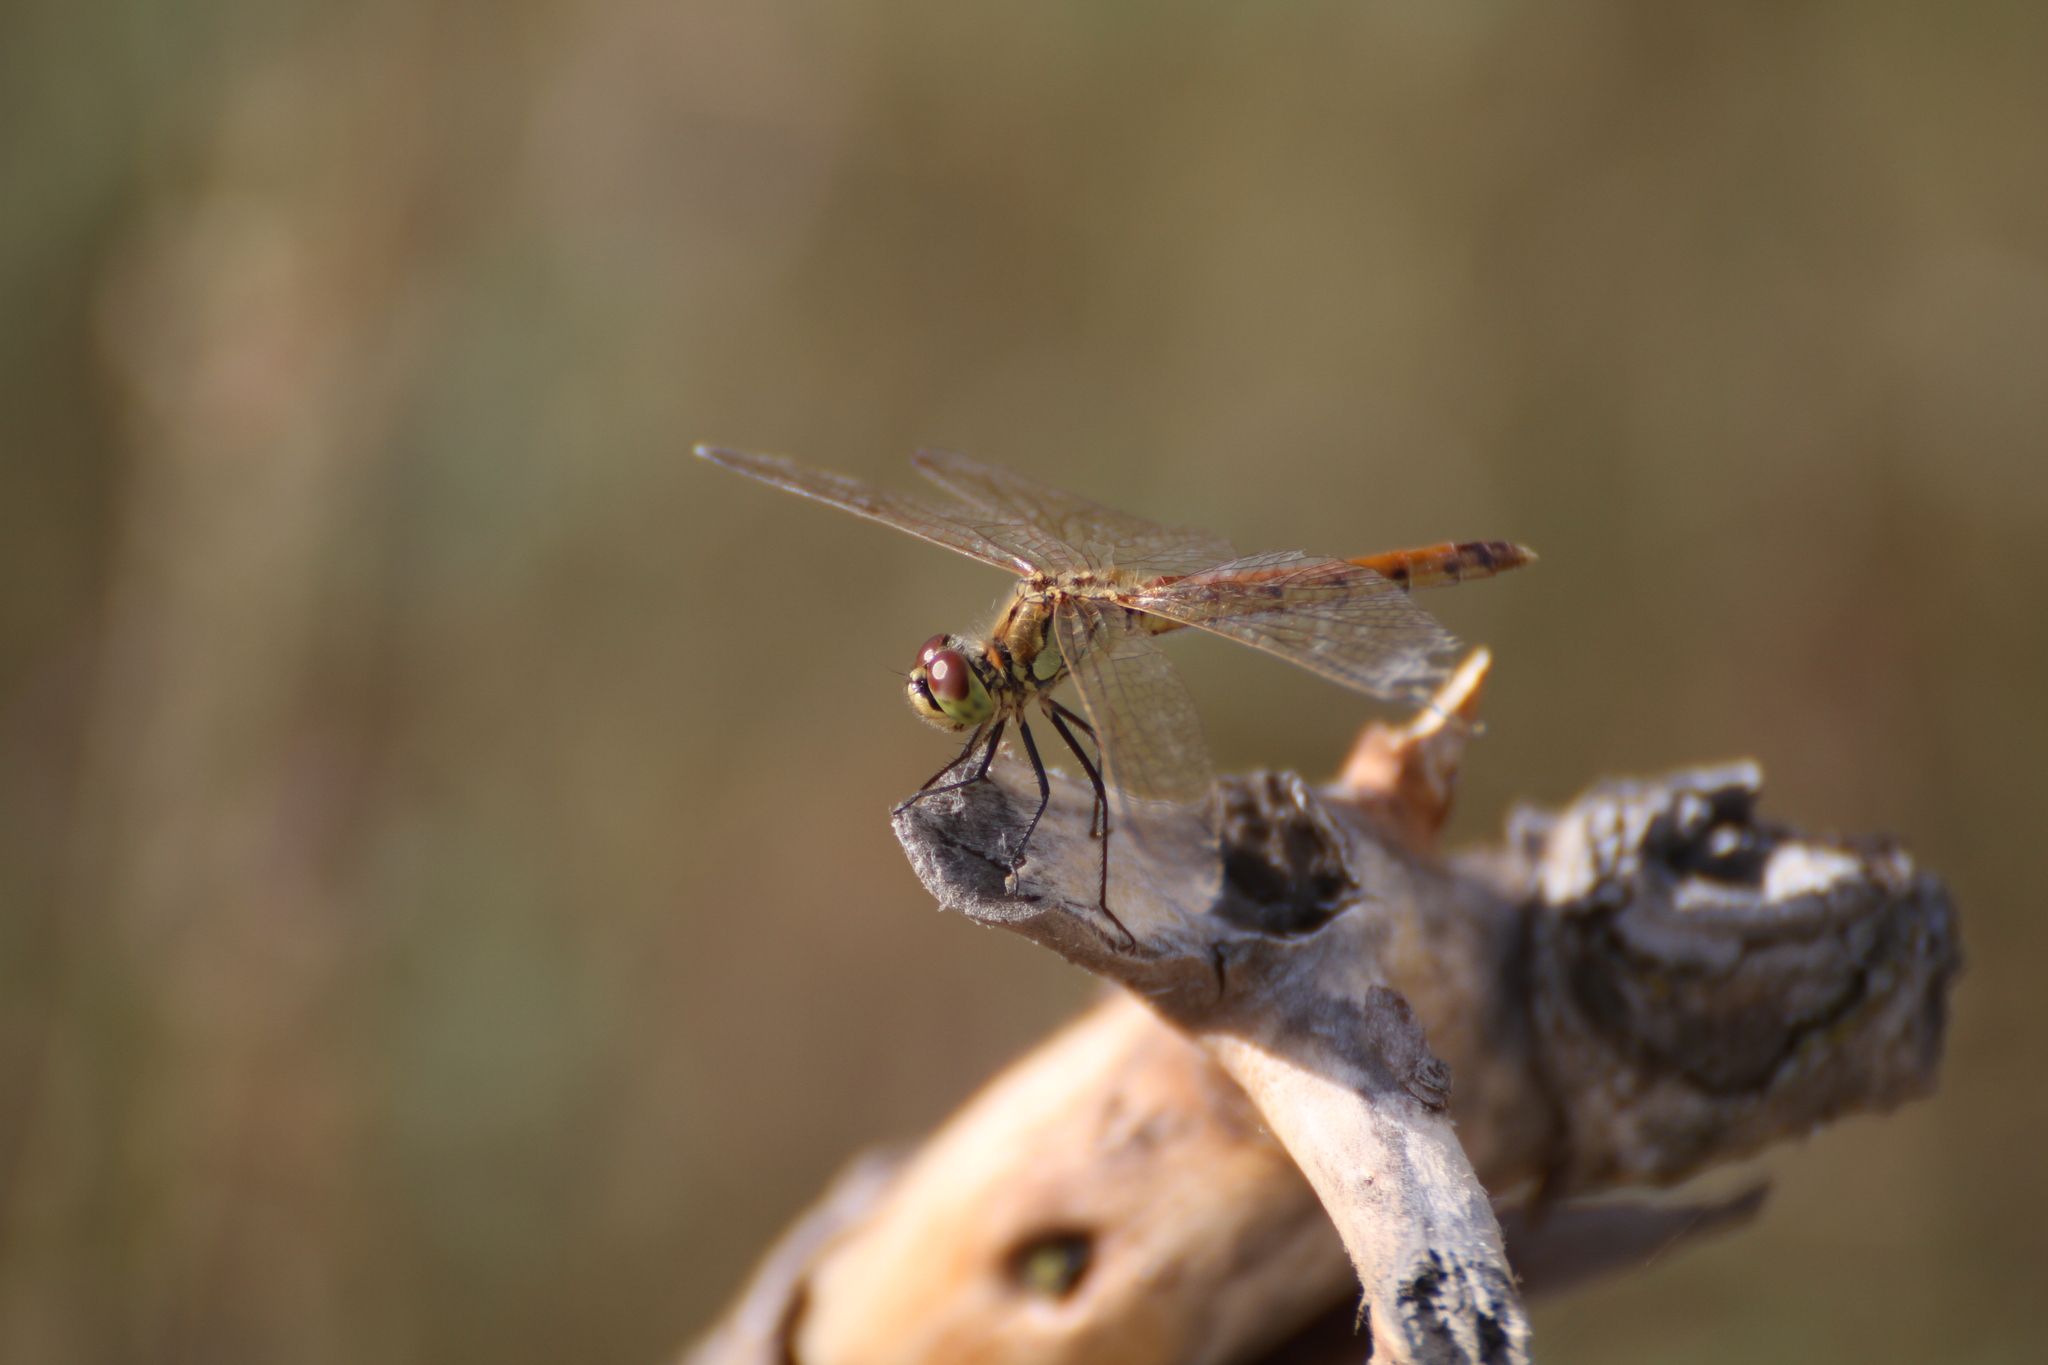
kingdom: Animalia
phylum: Arthropoda
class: Insecta
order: Odonata
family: Libellulidae
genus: Sympetrum
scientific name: Sympetrum depressiusculum
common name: Spotted darter
